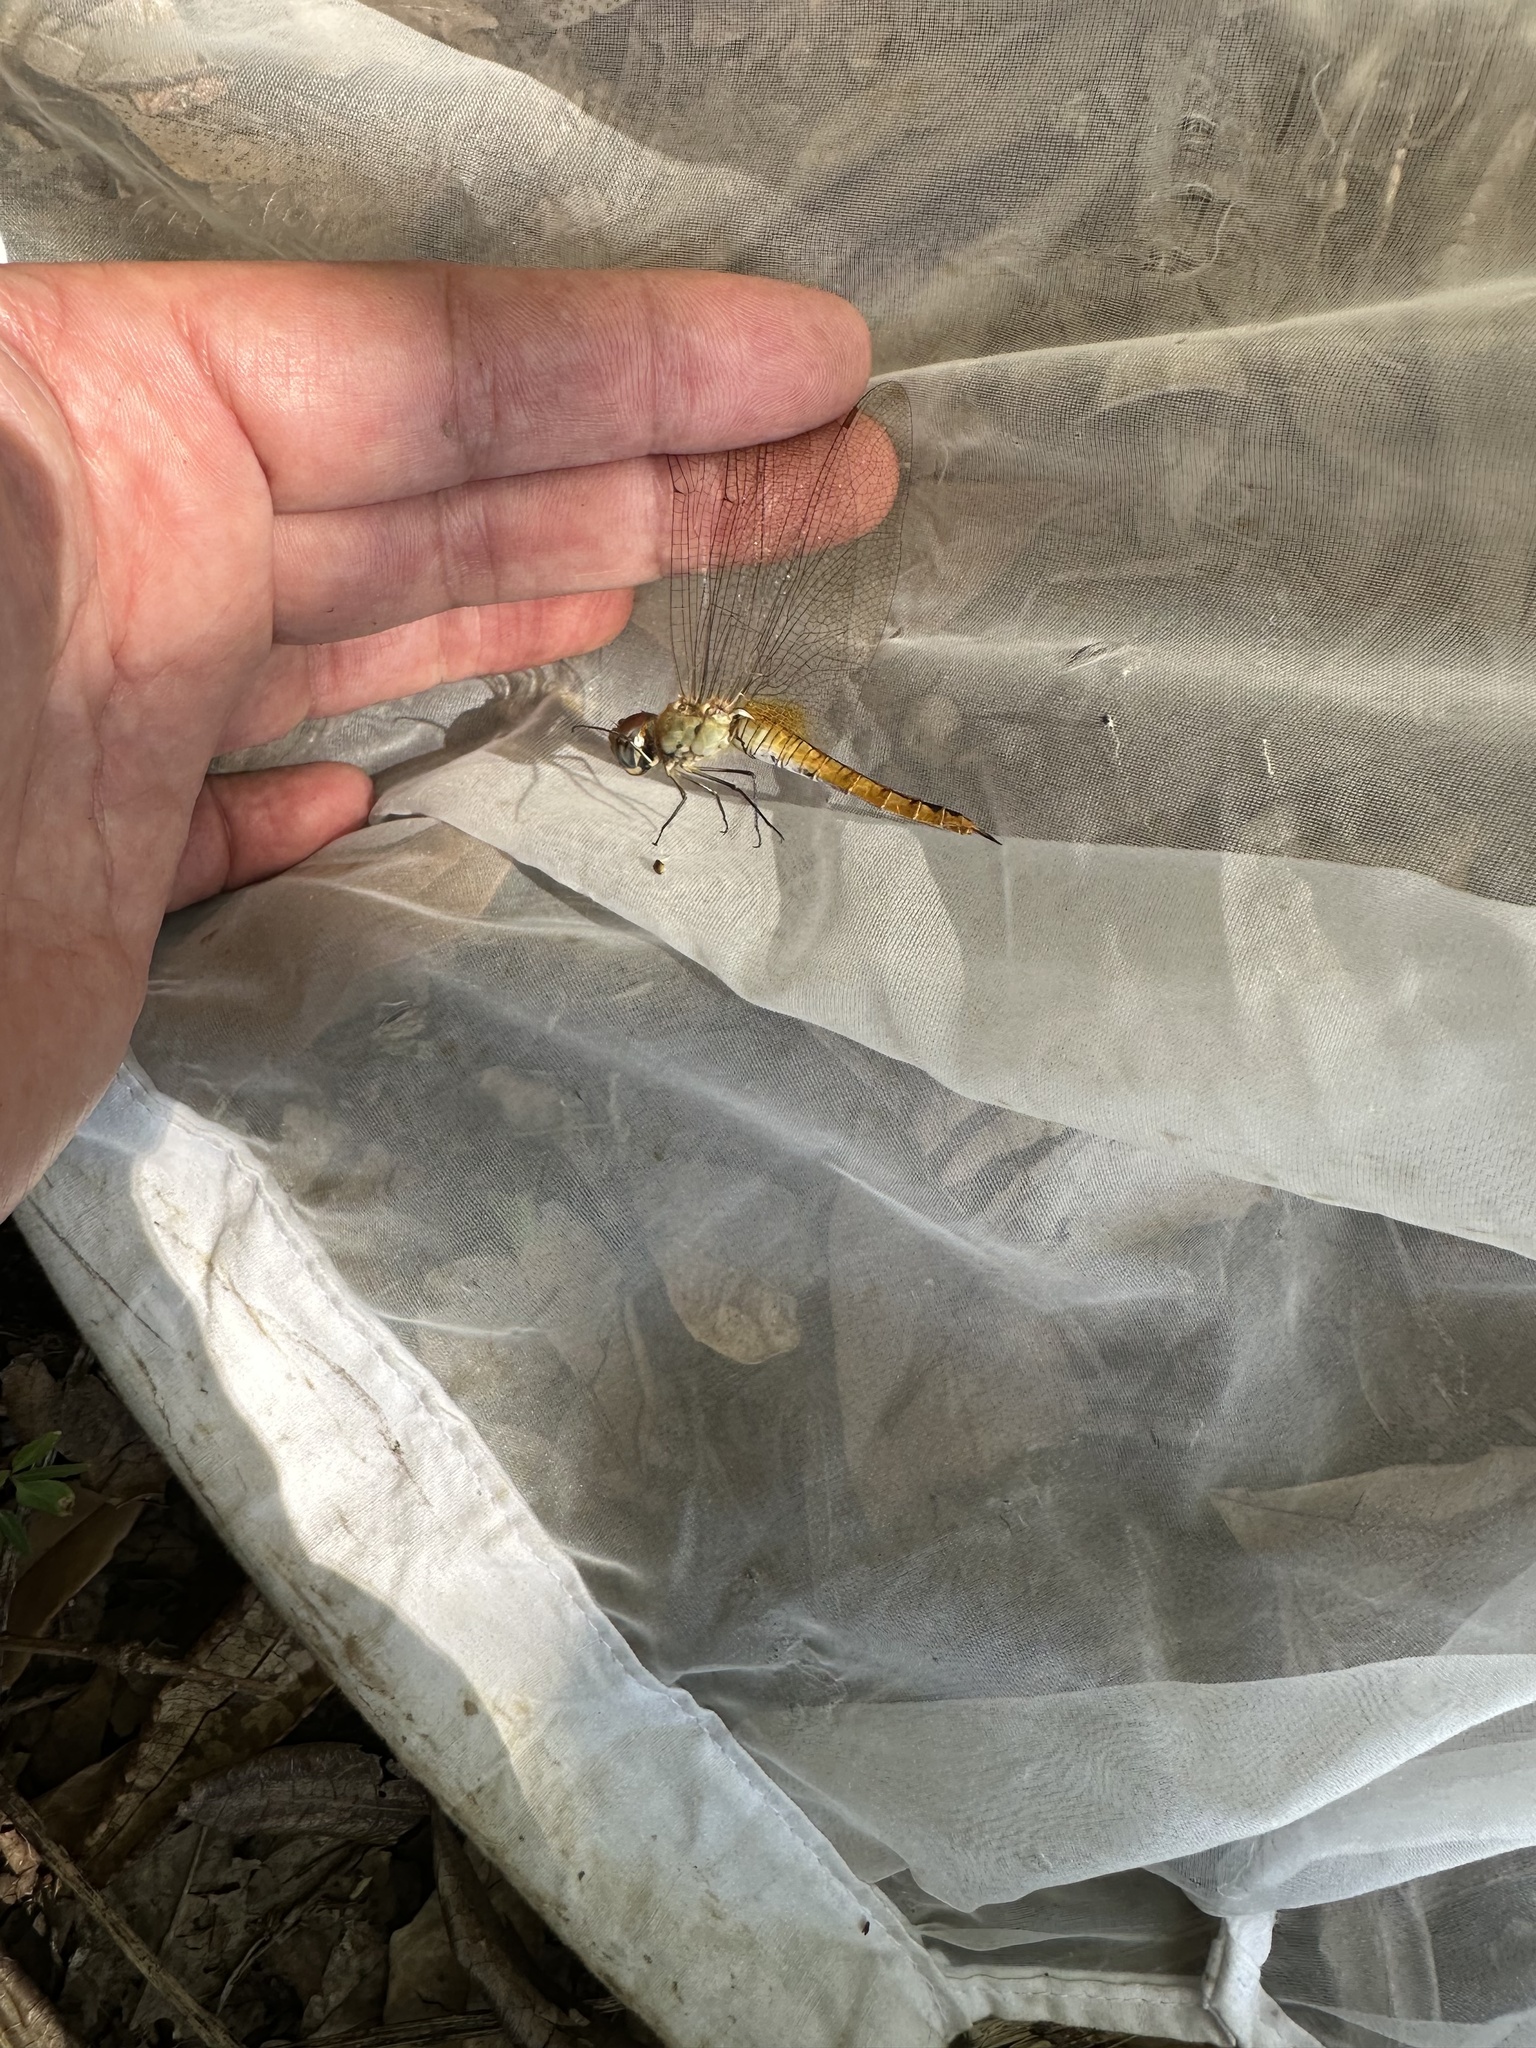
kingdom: Animalia
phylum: Arthropoda
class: Insecta
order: Odonata
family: Libellulidae
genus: Pantala
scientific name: Pantala flavescens
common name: Wandering glider
